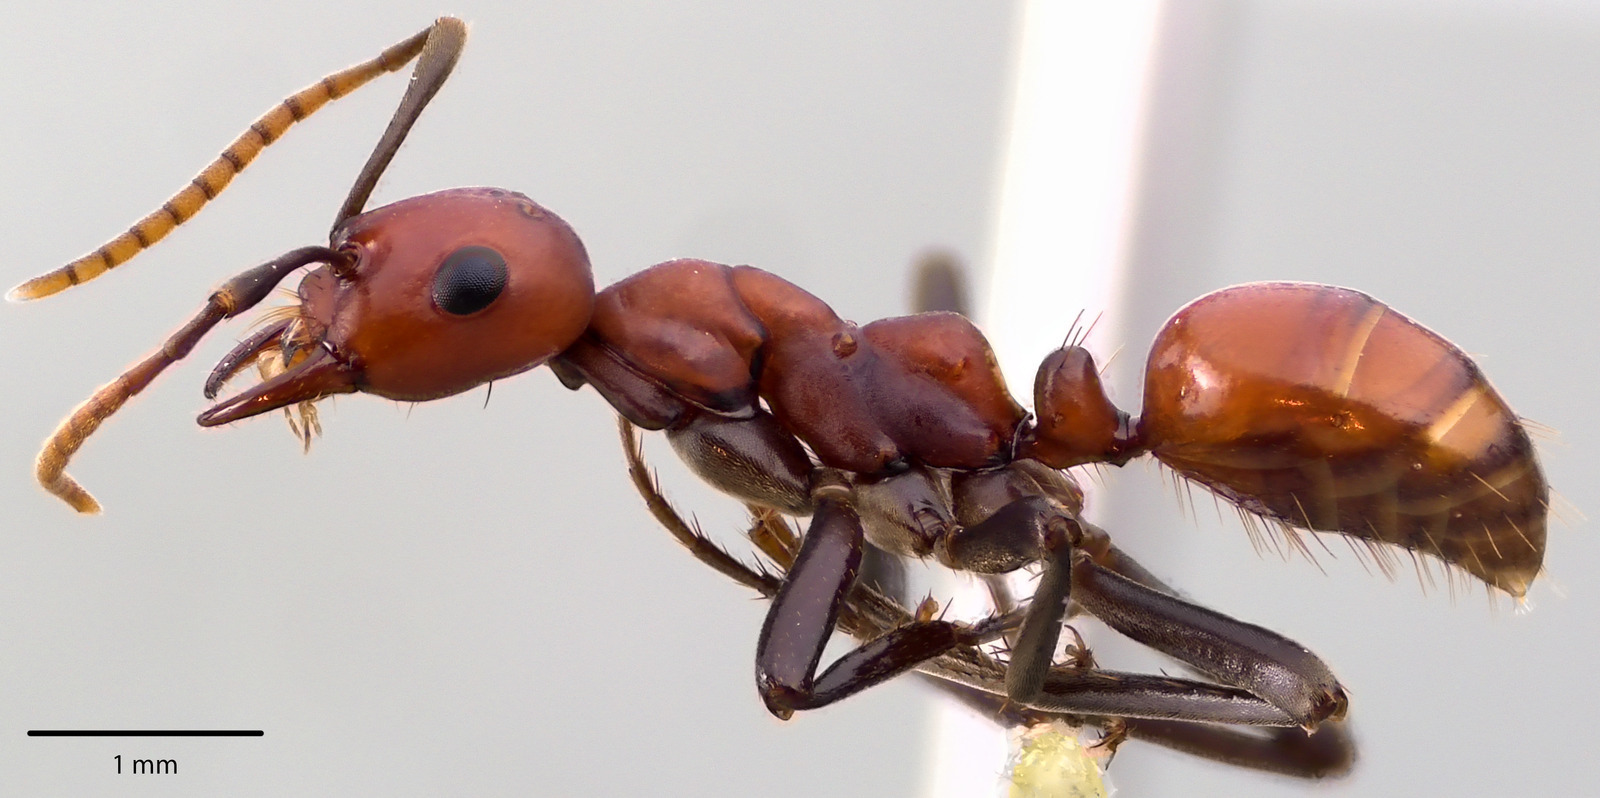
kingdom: Animalia
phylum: Arthropoda
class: Insecta
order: Hymenoptera
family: Formicidae
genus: Polyergus
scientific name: Polyergus montivagus
